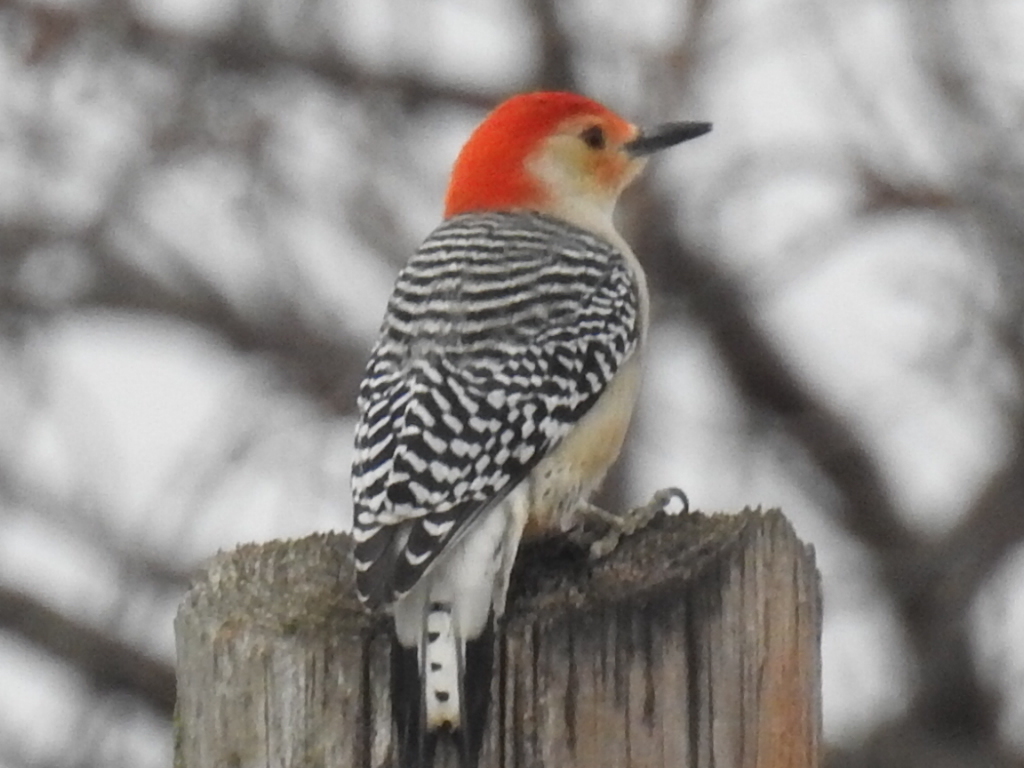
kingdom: Animalia
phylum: Chordata
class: Aves
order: Piciformes
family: Picidae
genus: Melanerpes
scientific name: Melanerpes carolinus
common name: Red-bellied woodpecker
